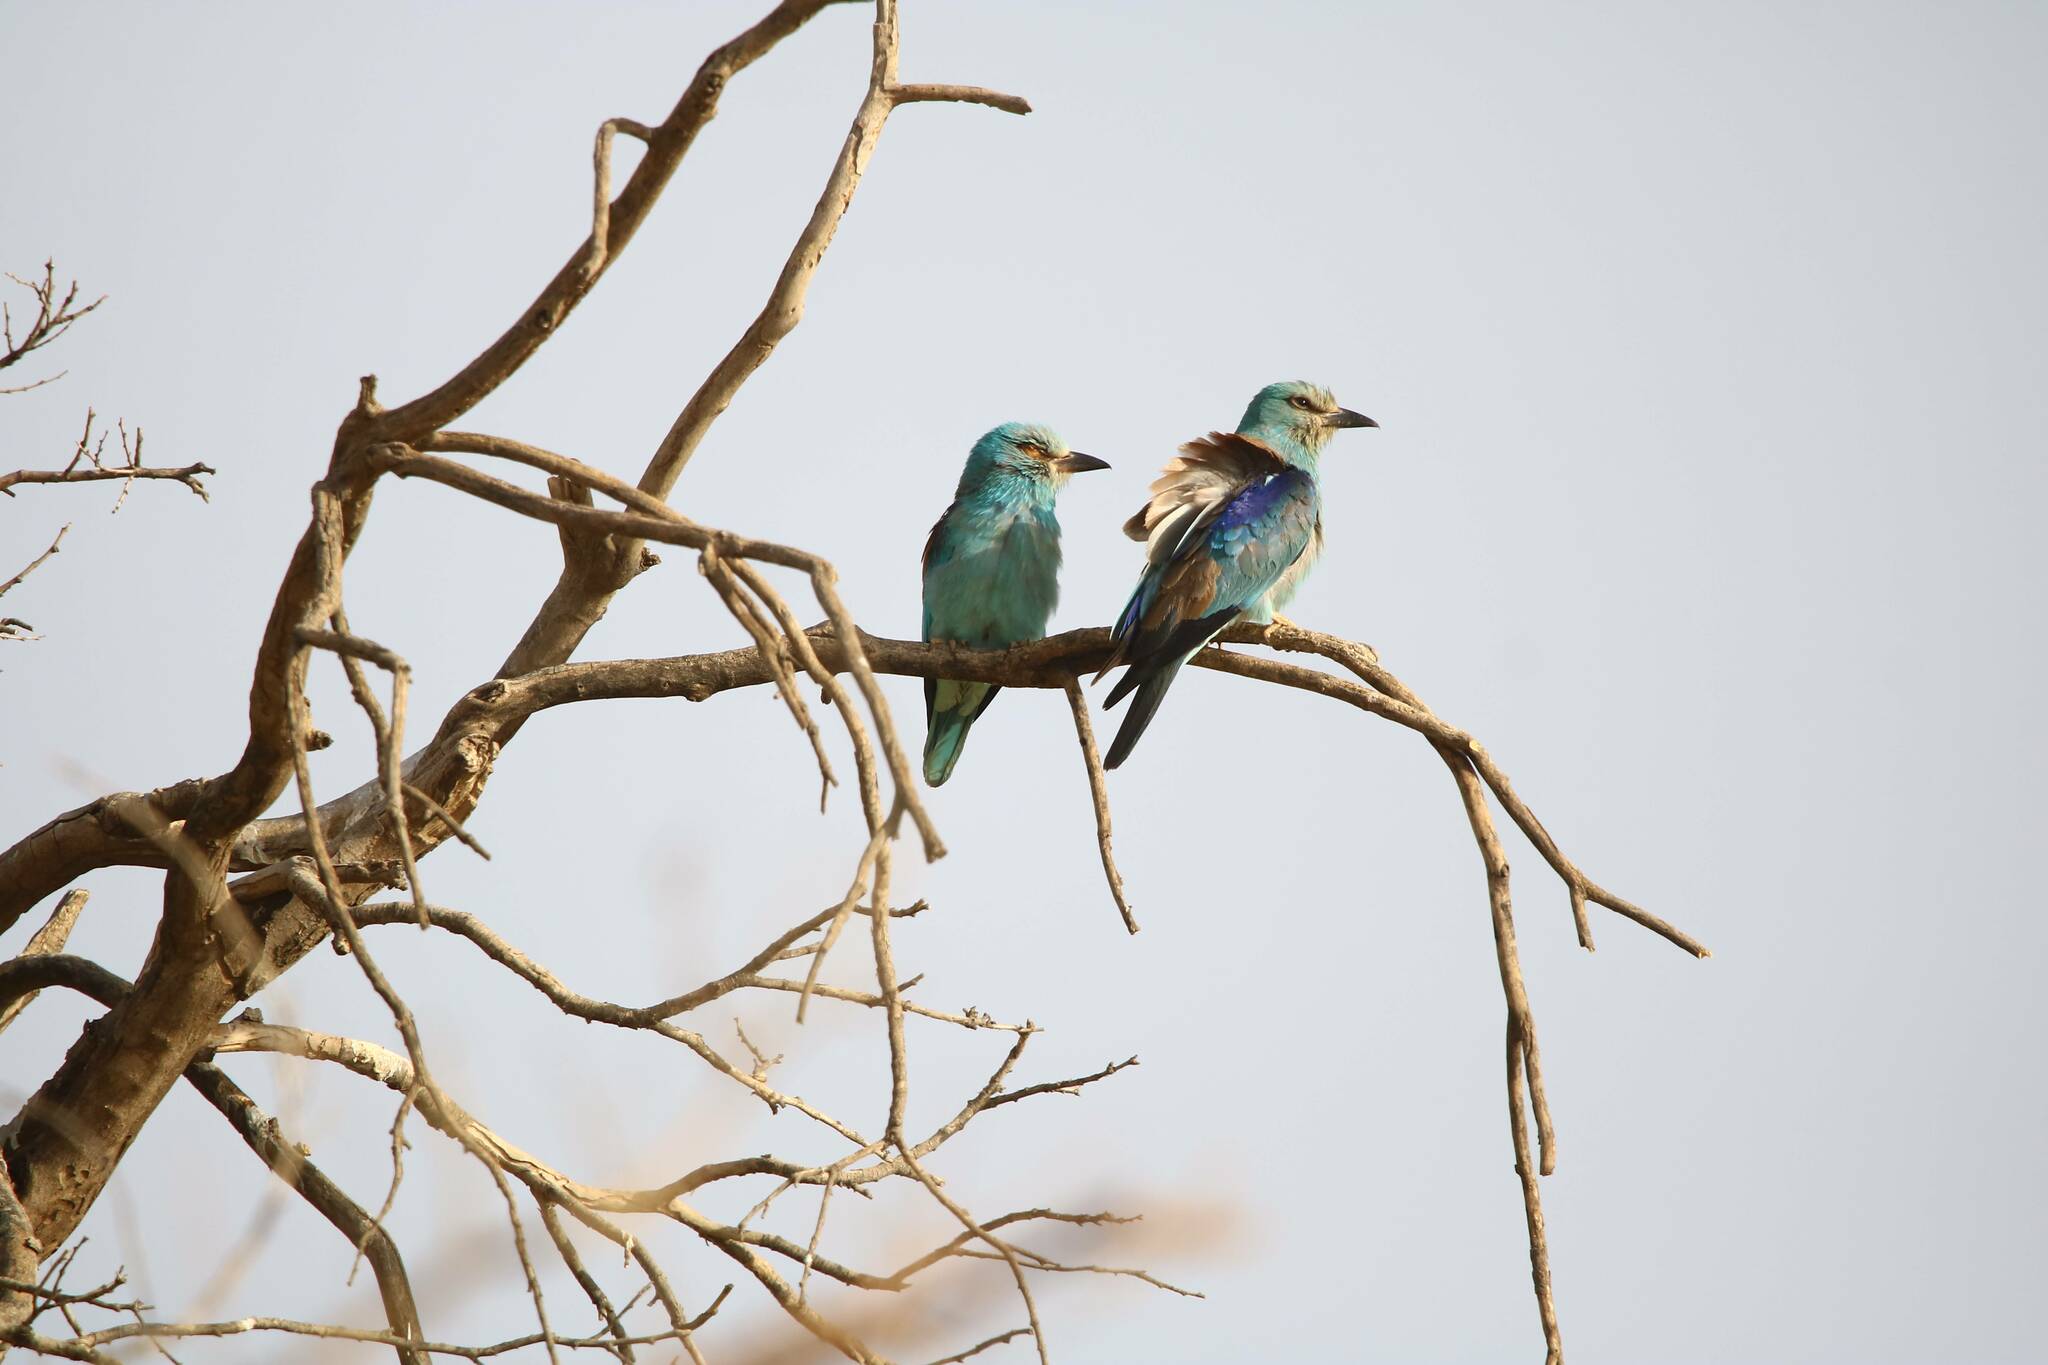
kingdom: Animalia
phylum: Chordata
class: Aves
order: Coraciiformes
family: Coraciidae
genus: Coracias
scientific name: Coracias garrulus
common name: European roller
